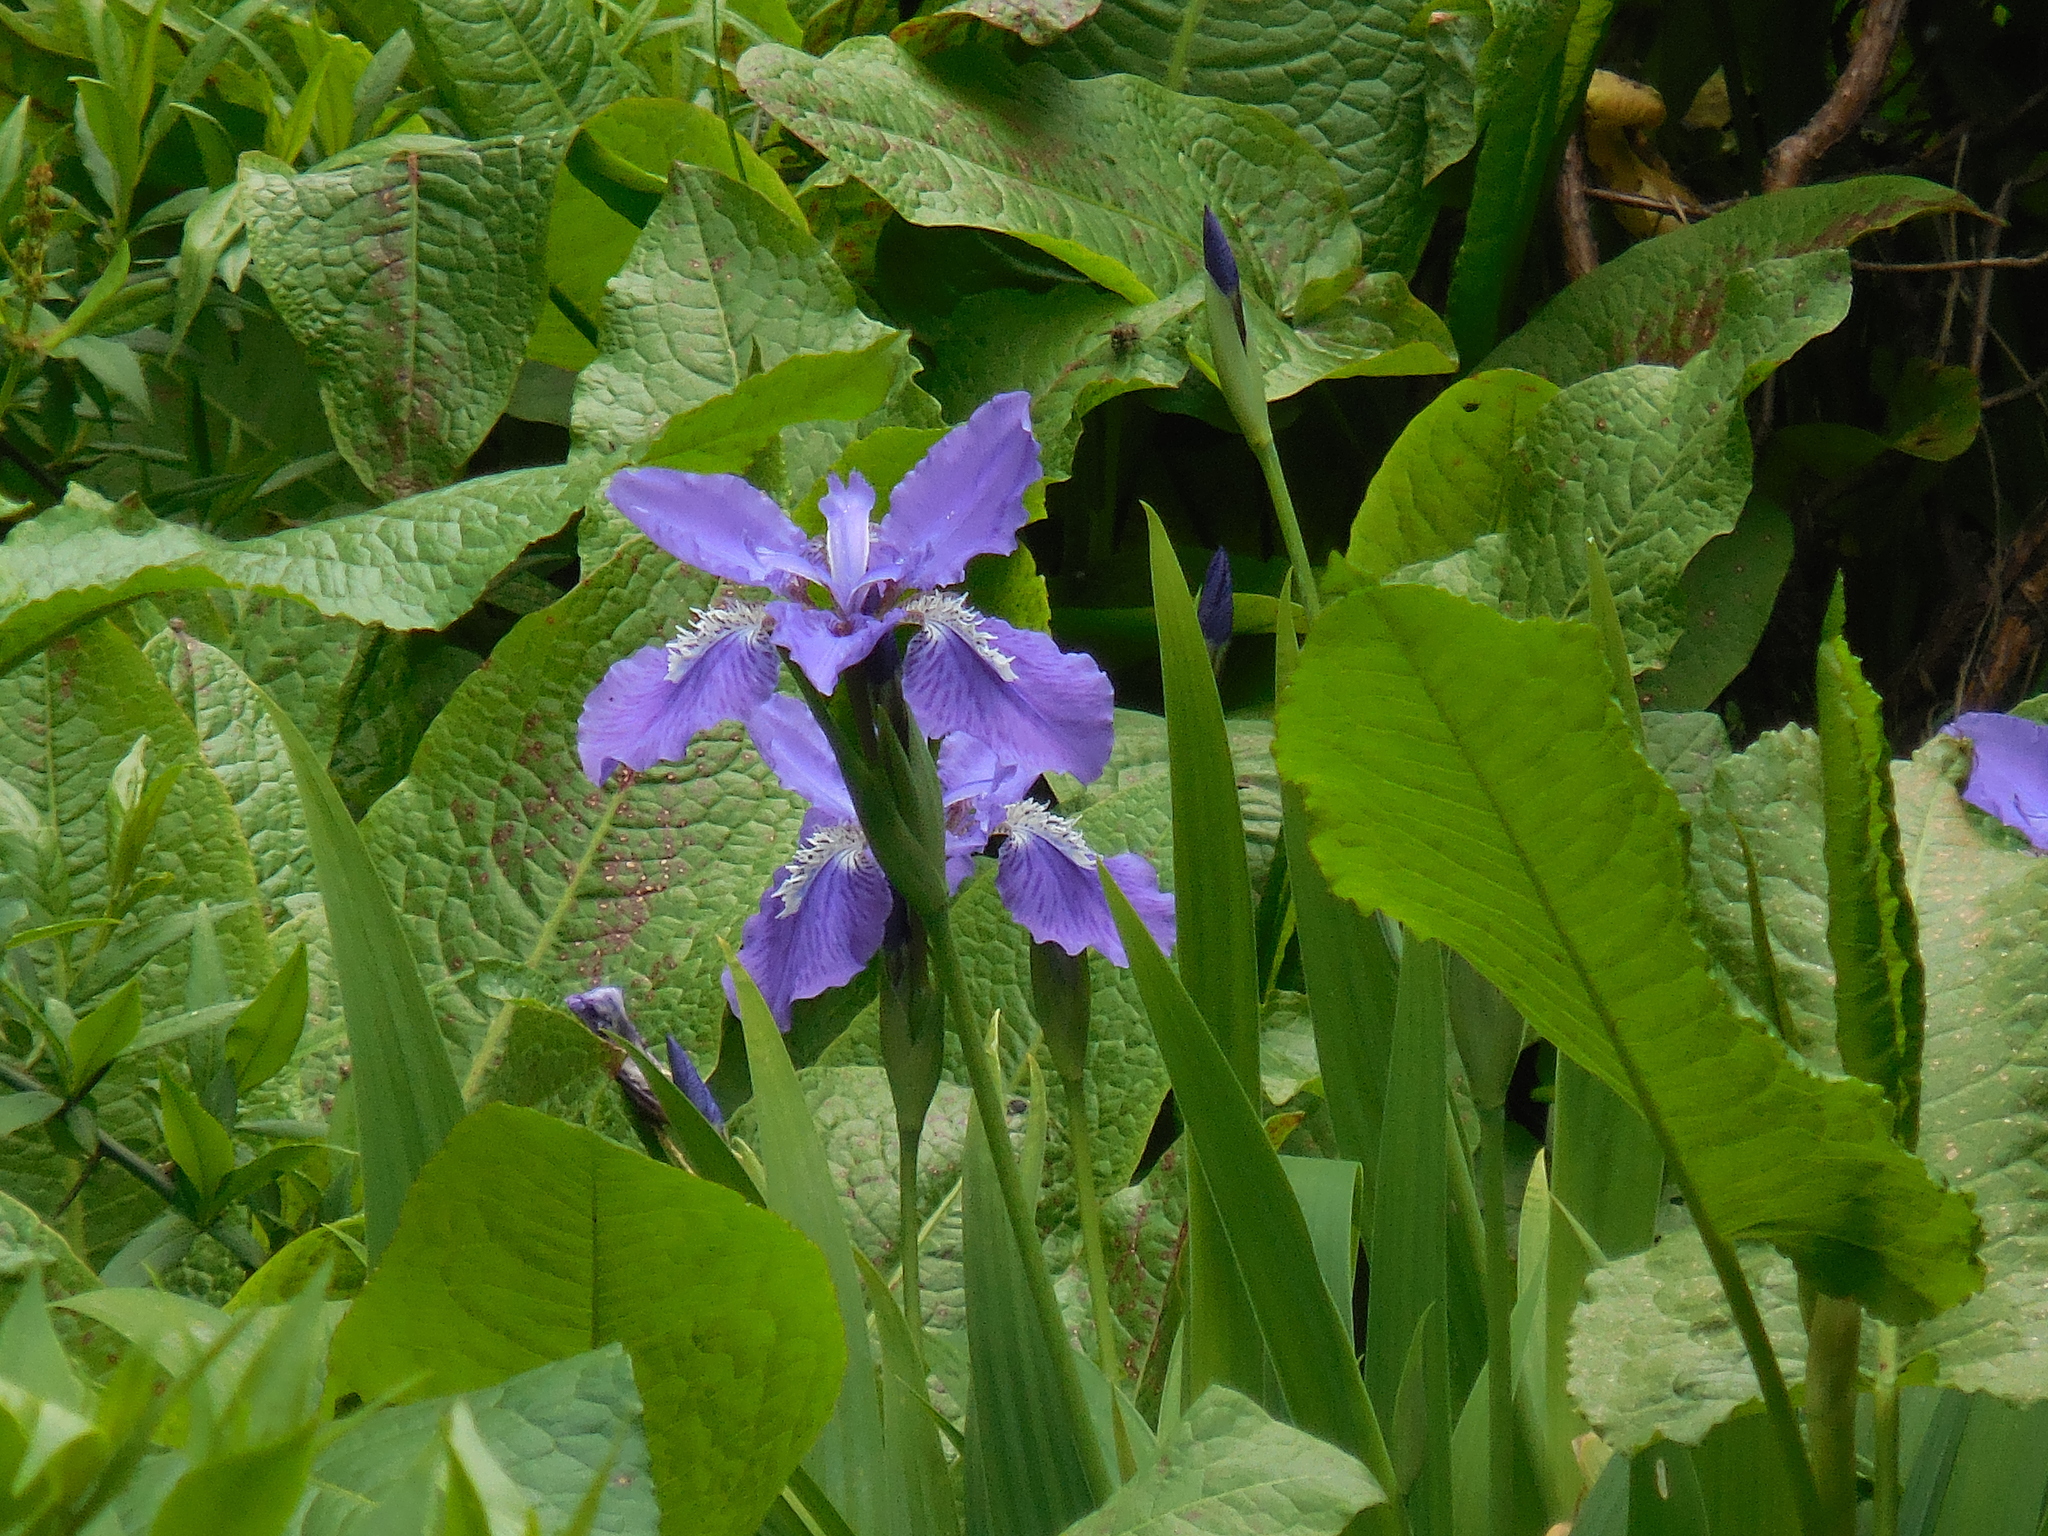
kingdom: Plantae
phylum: Tracheophyta
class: Liliopsida
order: Asparagales
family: Iridaceae
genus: Iris
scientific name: Iris tectorum
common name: Wall iris
